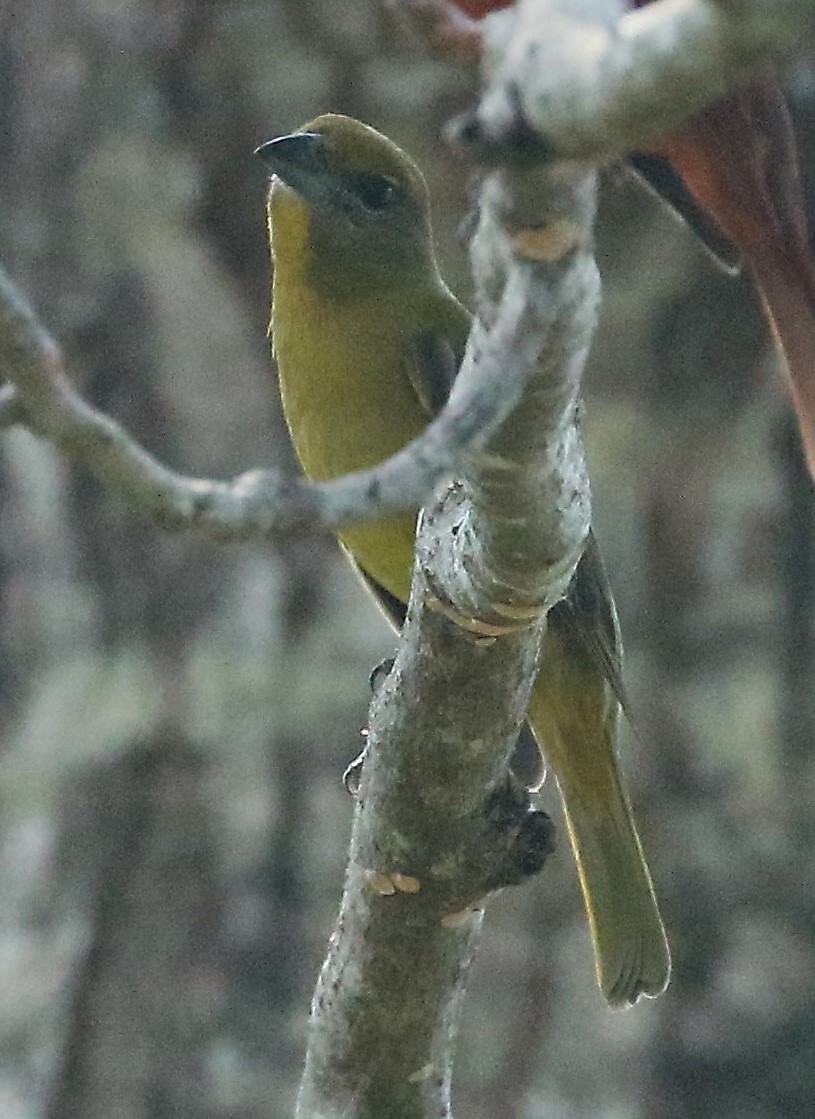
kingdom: Animalia
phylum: Chordata
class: Aves
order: Passeriformes
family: Cardinalidae
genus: Piranga
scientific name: Piranga flava
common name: Red tanager
